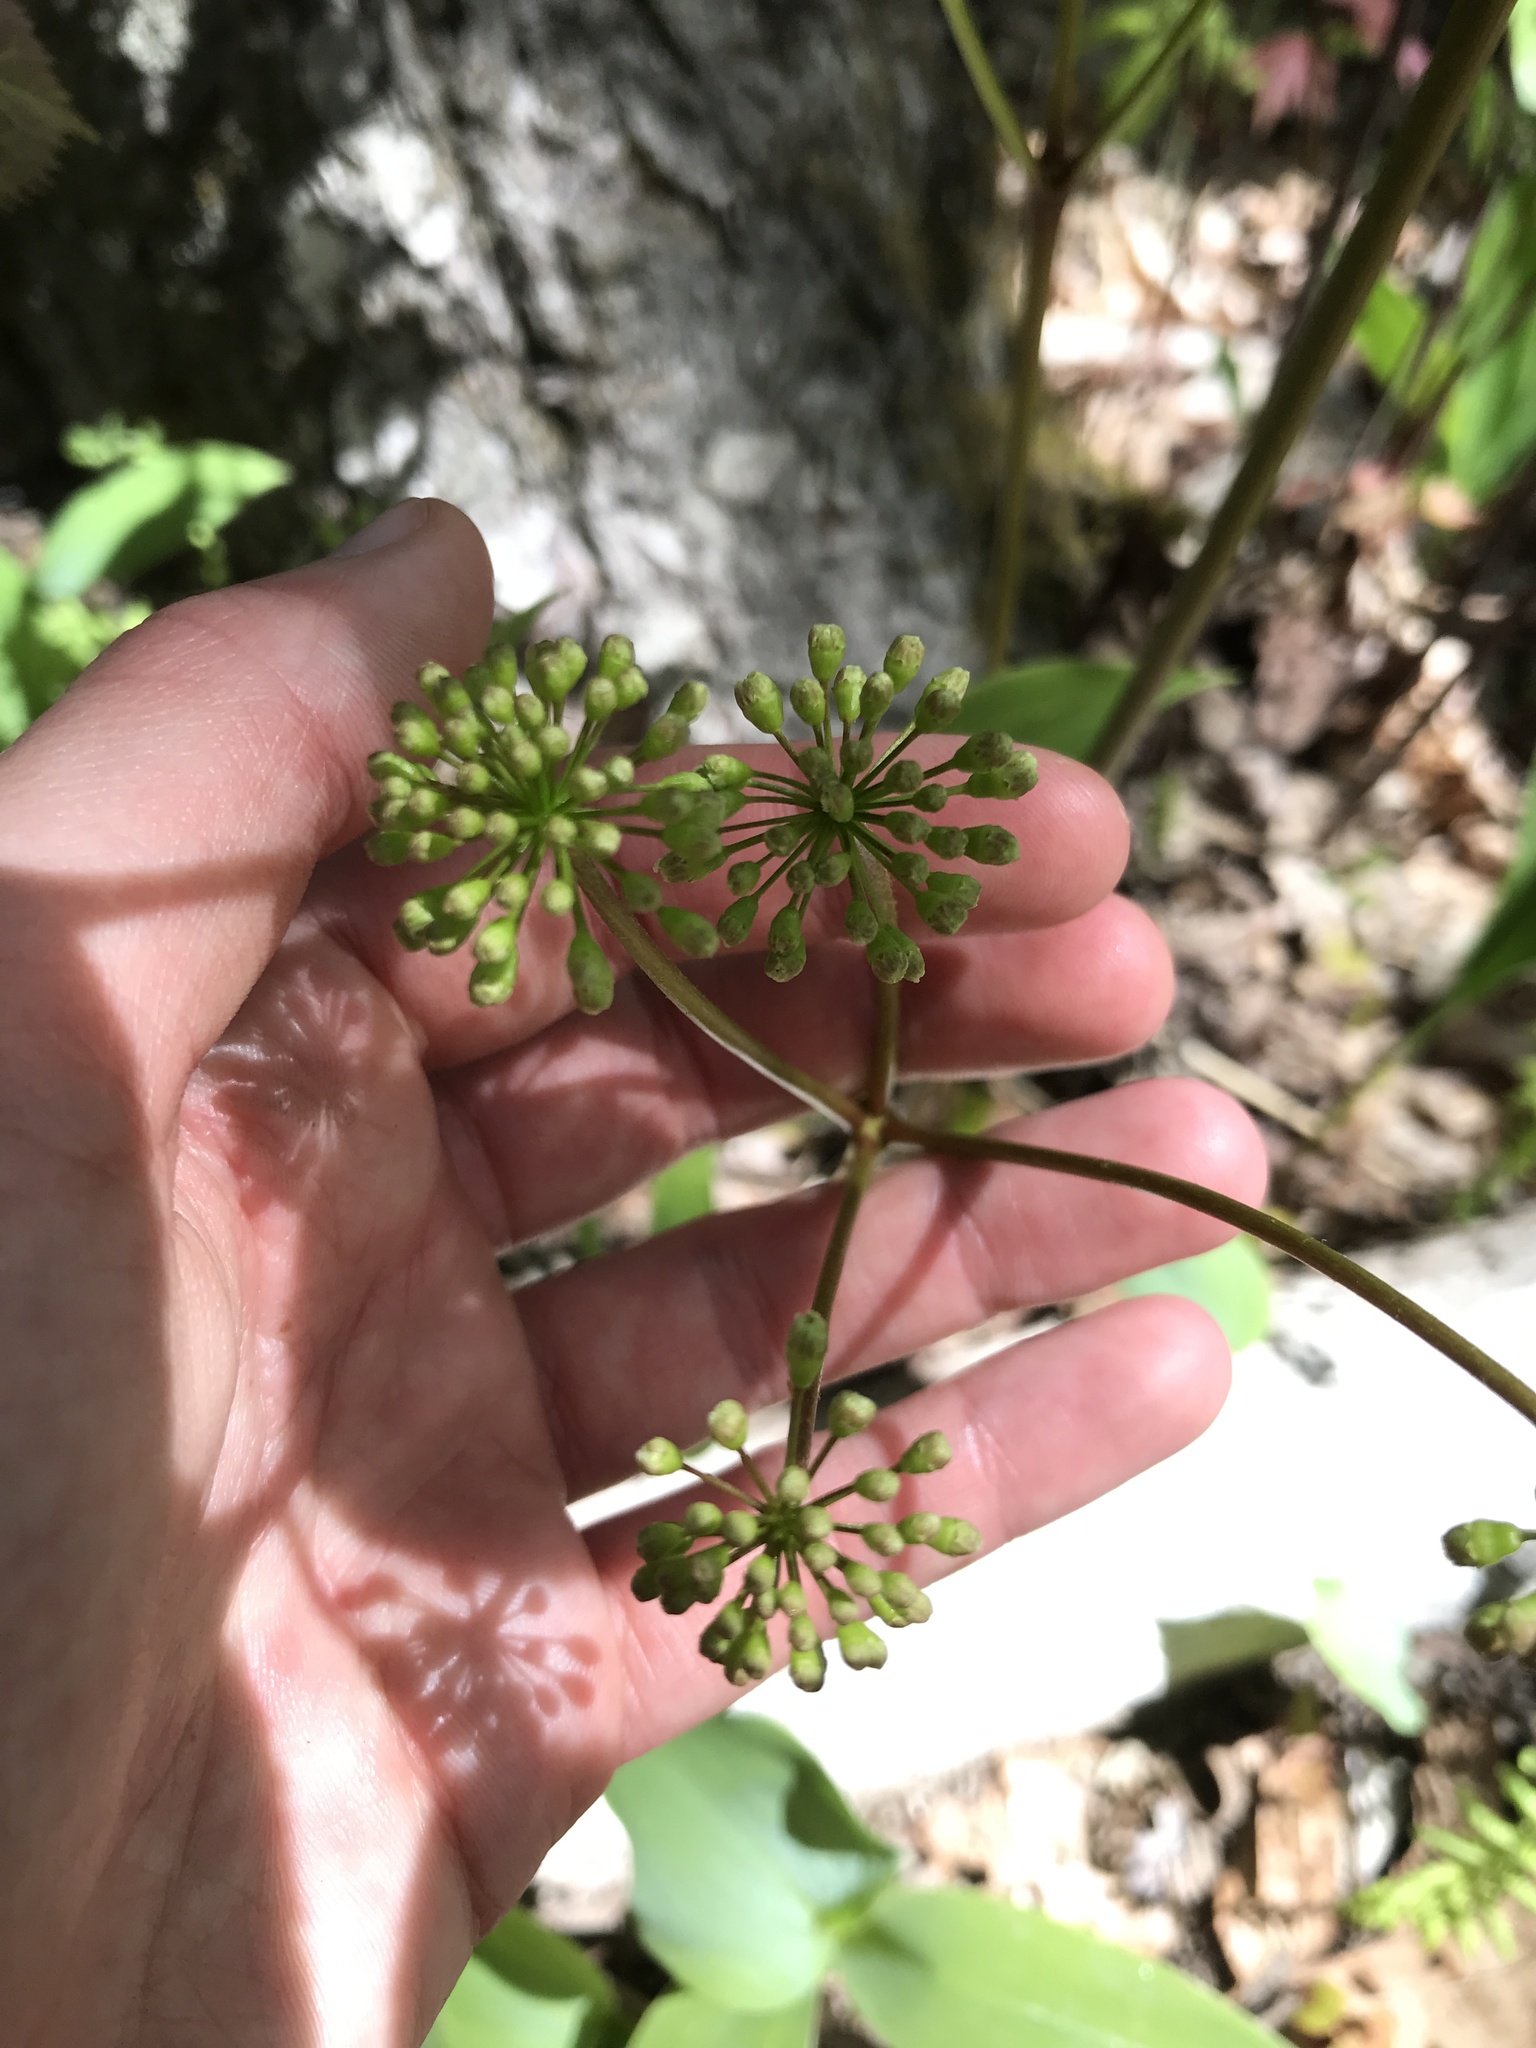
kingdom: Plantae
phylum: Tracheophyta
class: Magnoliopsida
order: Apiales
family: Araliaceae
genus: Aralia
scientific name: Aralia nudicaulis
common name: Wild sarsaparilla
